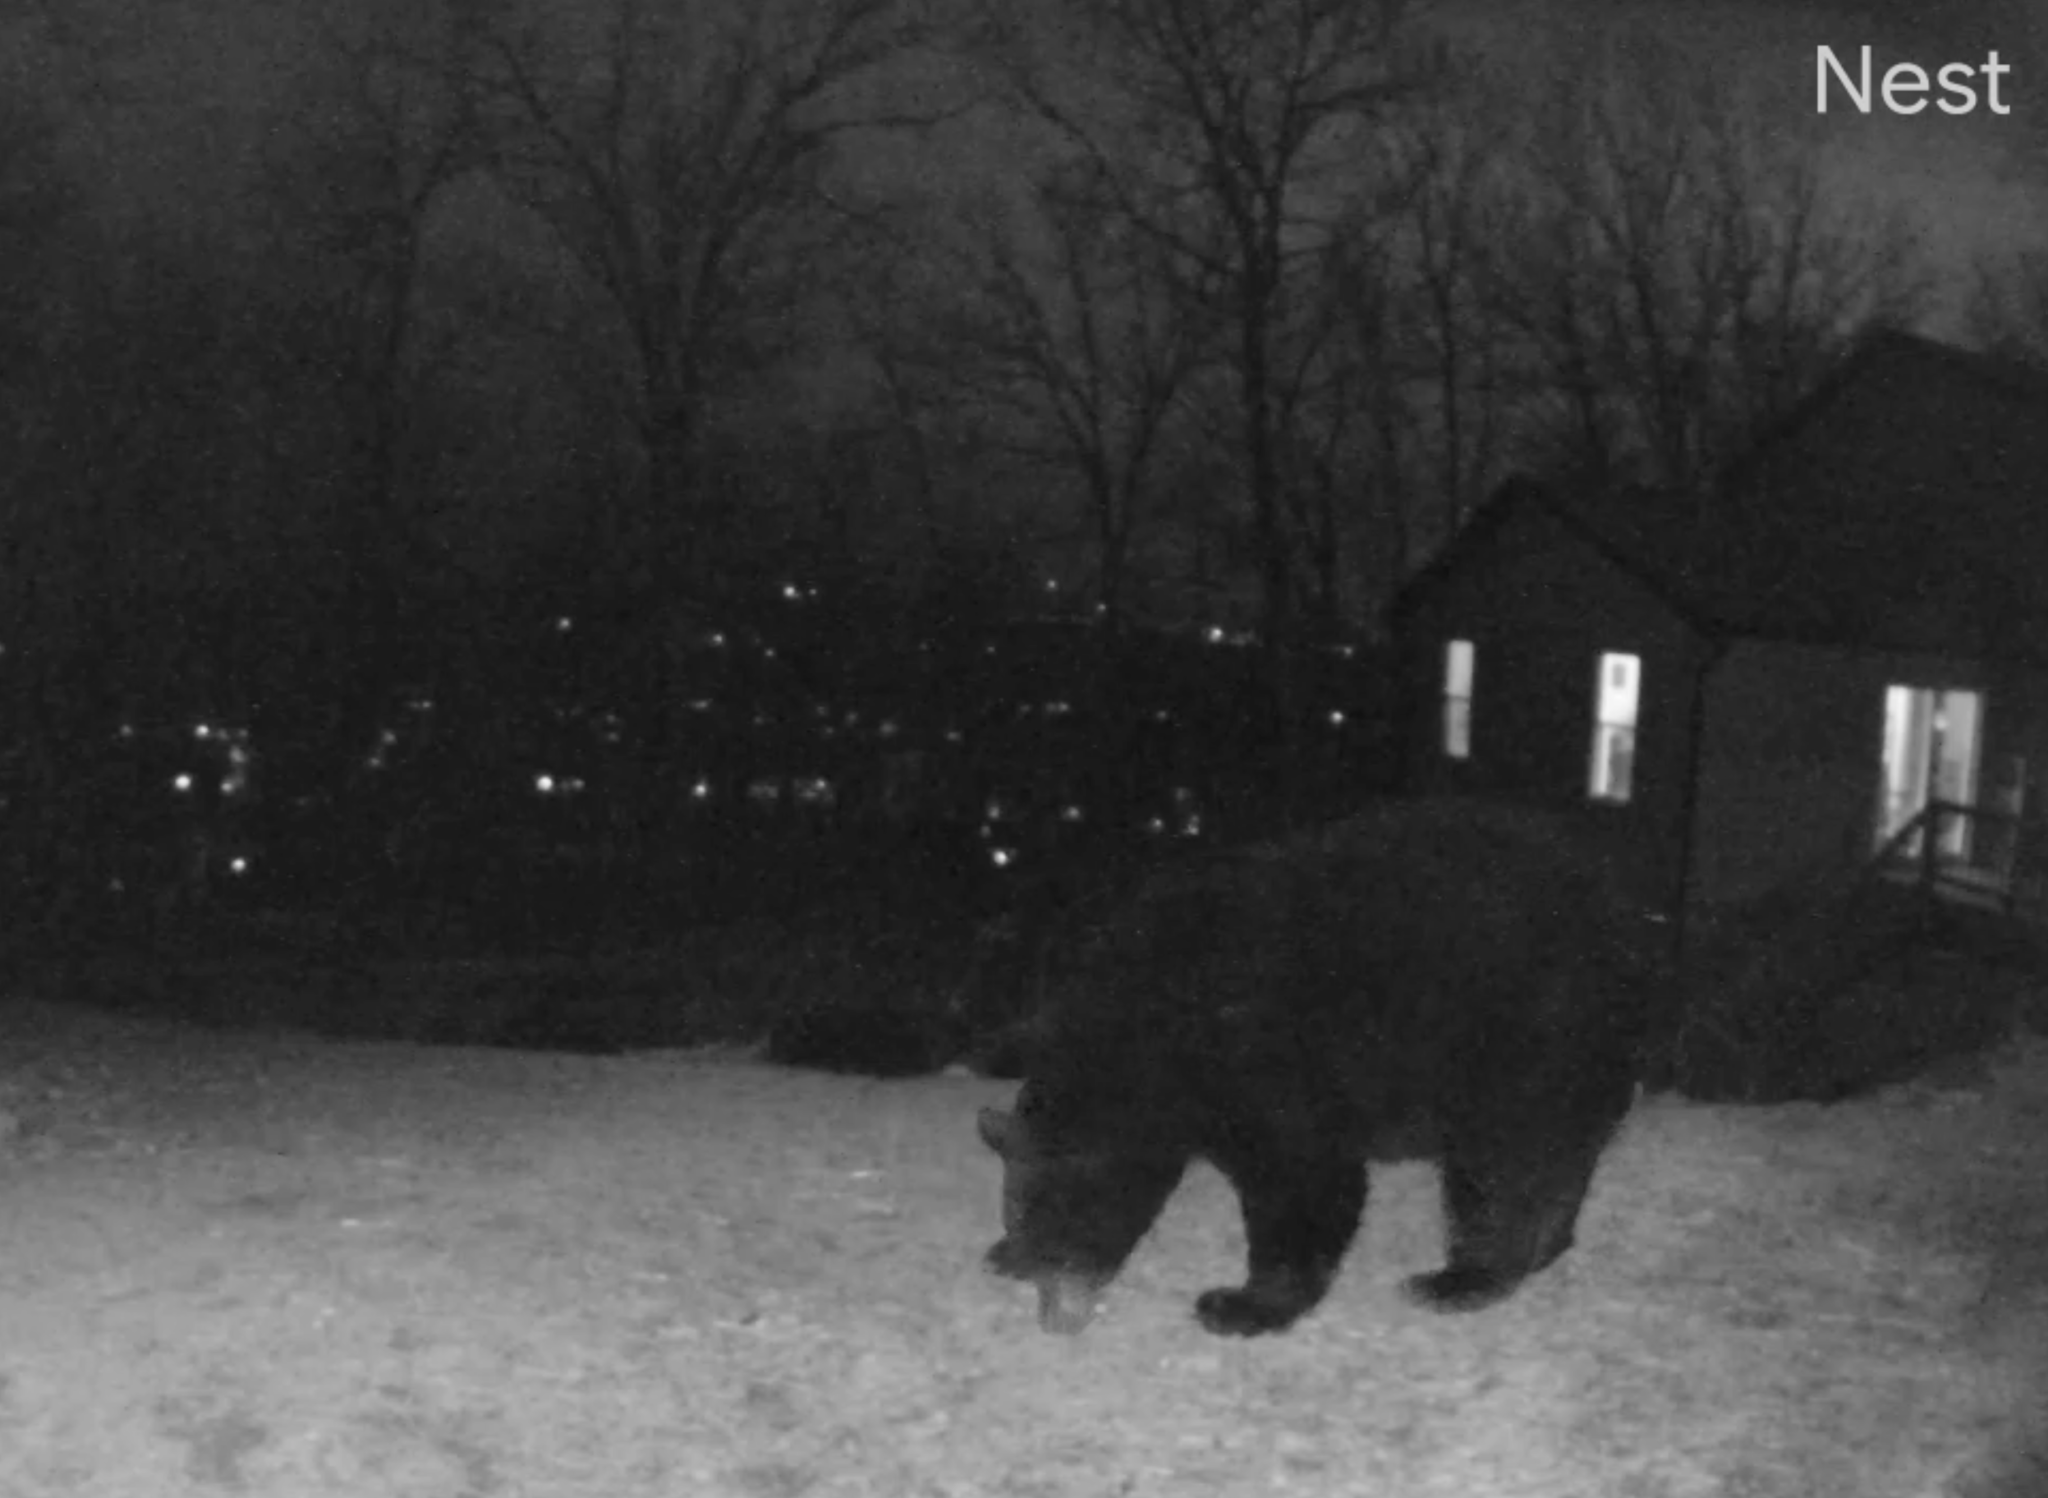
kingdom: Animalia
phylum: Chordata
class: Mammalia
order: Carnivora
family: Ursidae
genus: Ursus
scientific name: Ursus americanus
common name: American black bear
